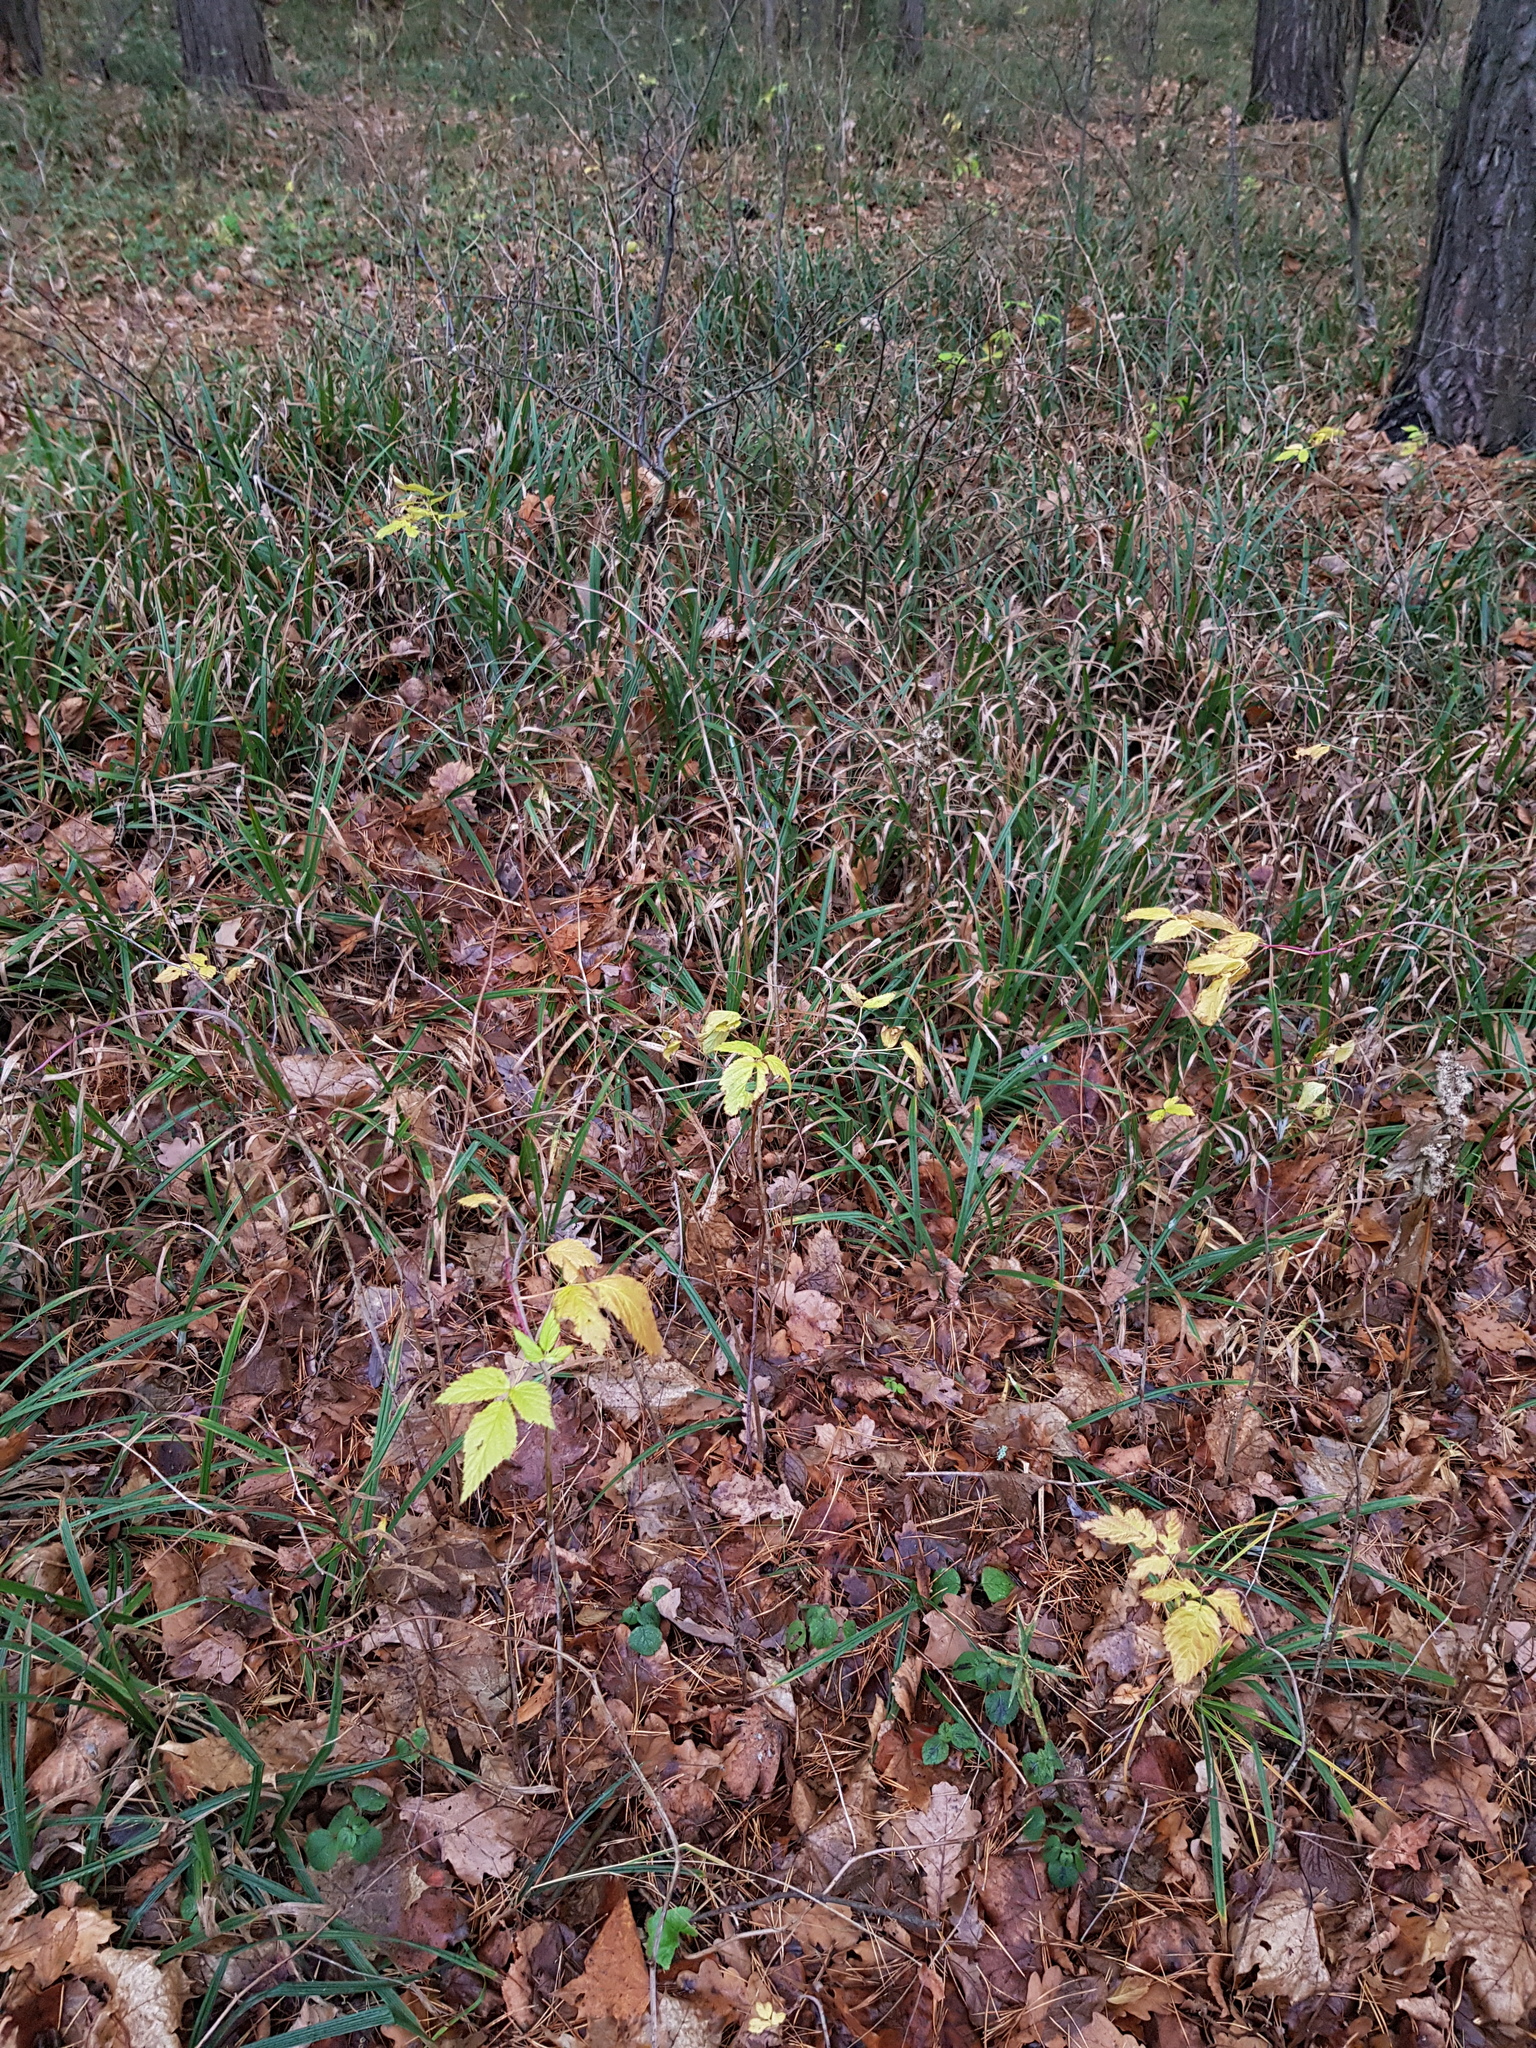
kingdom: Plantae
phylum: Tracheophyta
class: Magnoliopsida
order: Rosales
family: Rosaceae
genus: Rubus
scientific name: Rubus idaeus
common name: Raspberry
